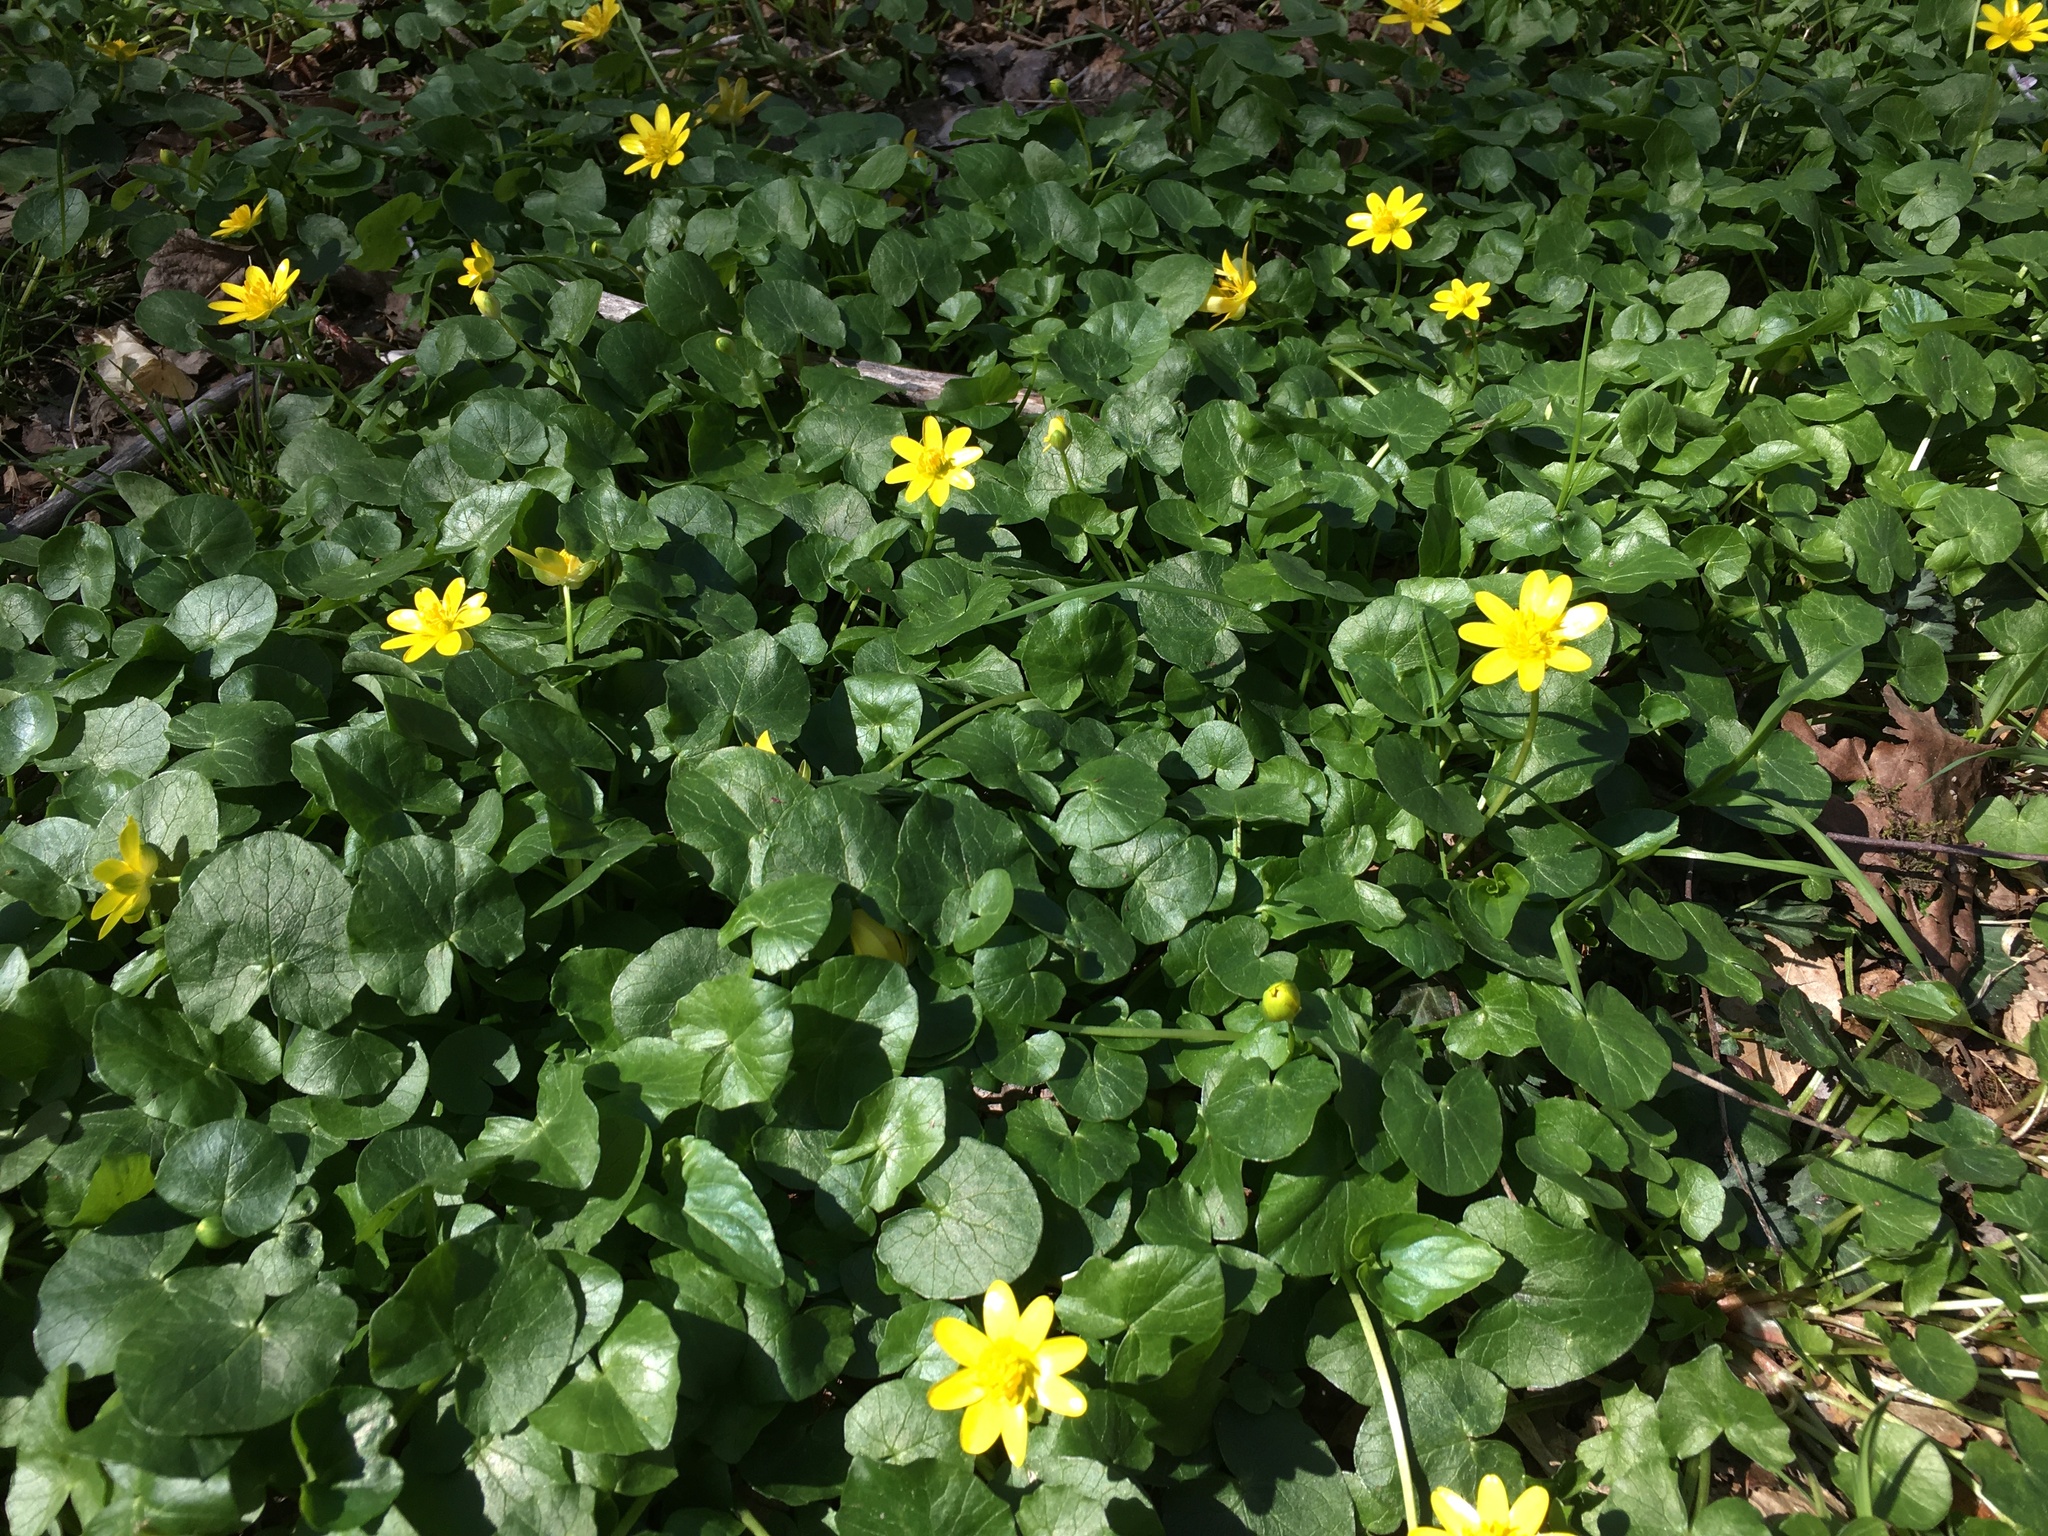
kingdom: Plantae
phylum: Tracheophyta
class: Magnoliopsida
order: Ranunculales
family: Ranunculaceae
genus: Ficaria
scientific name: Ficaria verna
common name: Lesser celandine
